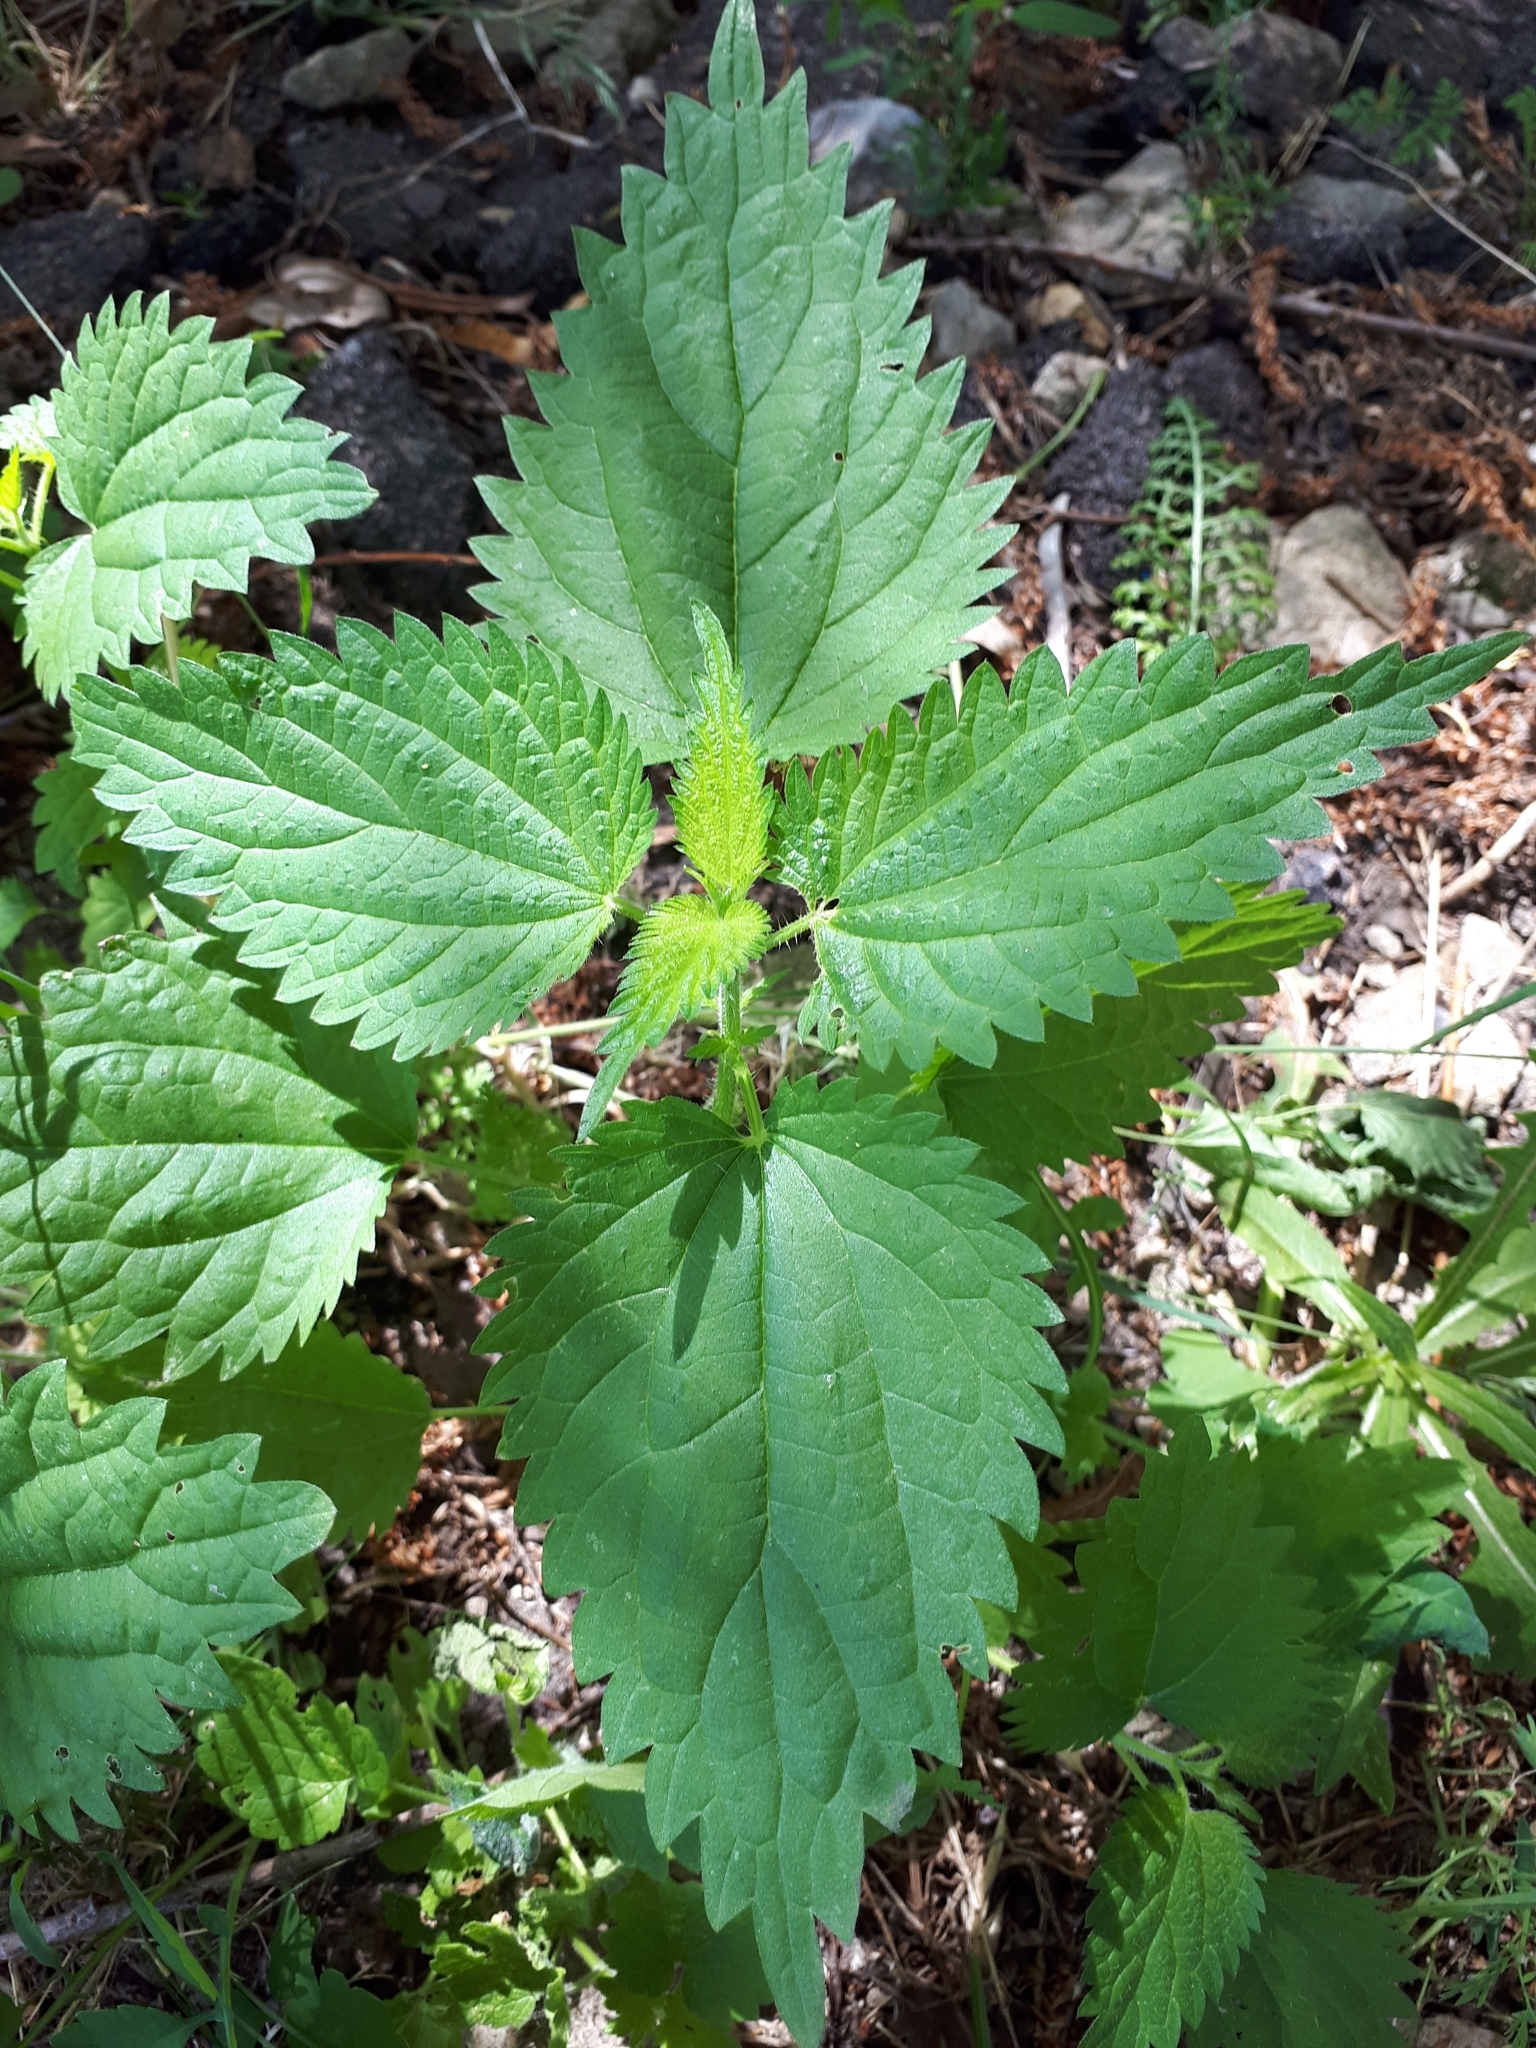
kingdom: Plantae
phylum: Tracheophyta
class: Magnoliopsida
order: Rosales
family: Urticaceae
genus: Urtica
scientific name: Urtica dioica
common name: Common nettle
